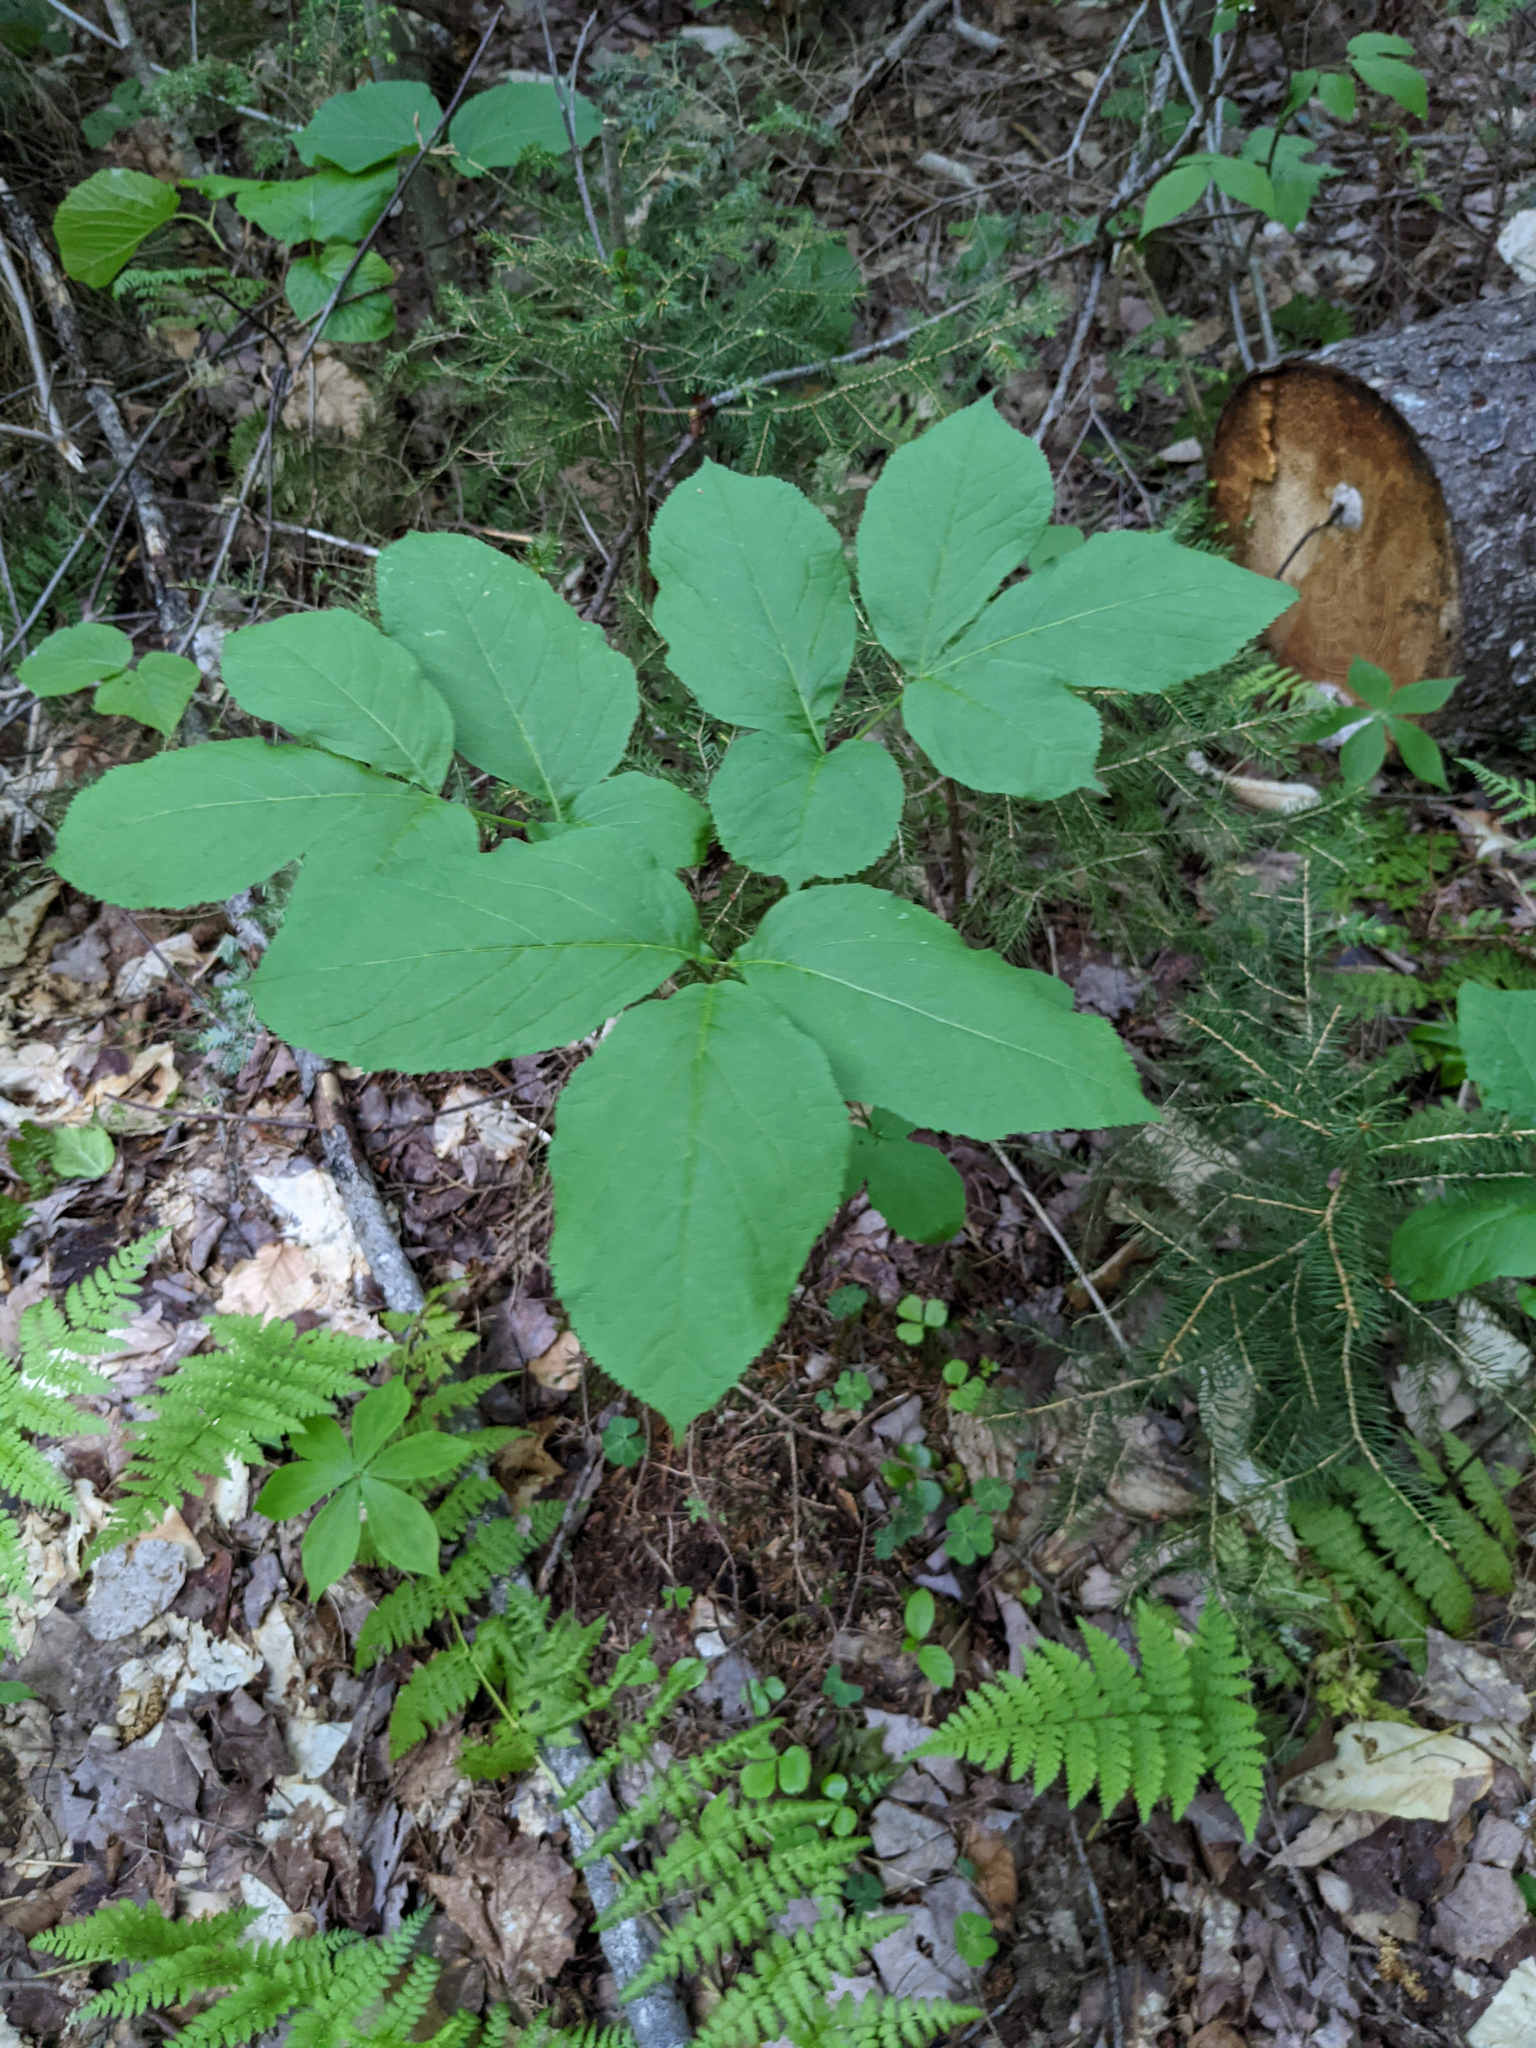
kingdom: Plantae
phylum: Tracheophyta
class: Magnoliopsida
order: Apiales
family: Araliaceae
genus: Aralia
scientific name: Aralia nudicaulis
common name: Wild sarsaparilla
